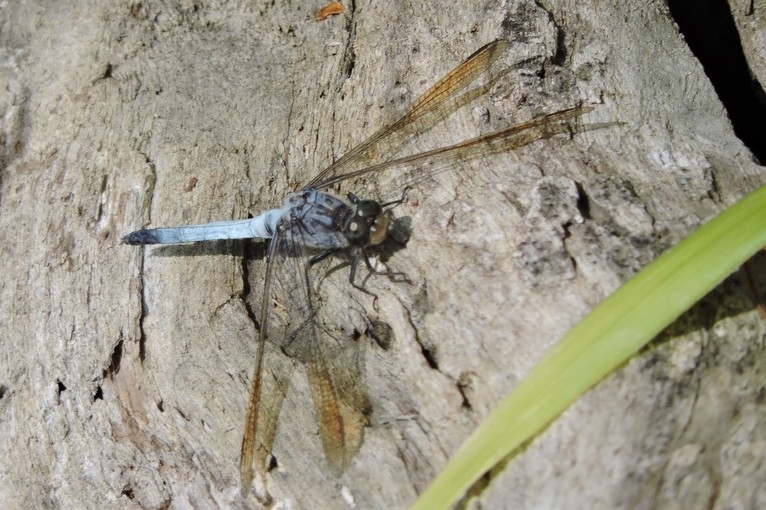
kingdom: Animalia
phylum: Arthropoda
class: Insecta
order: Odonata
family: Libellulidae
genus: Orthetrum
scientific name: Orthetrum caledonicum
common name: Blue skimmer
